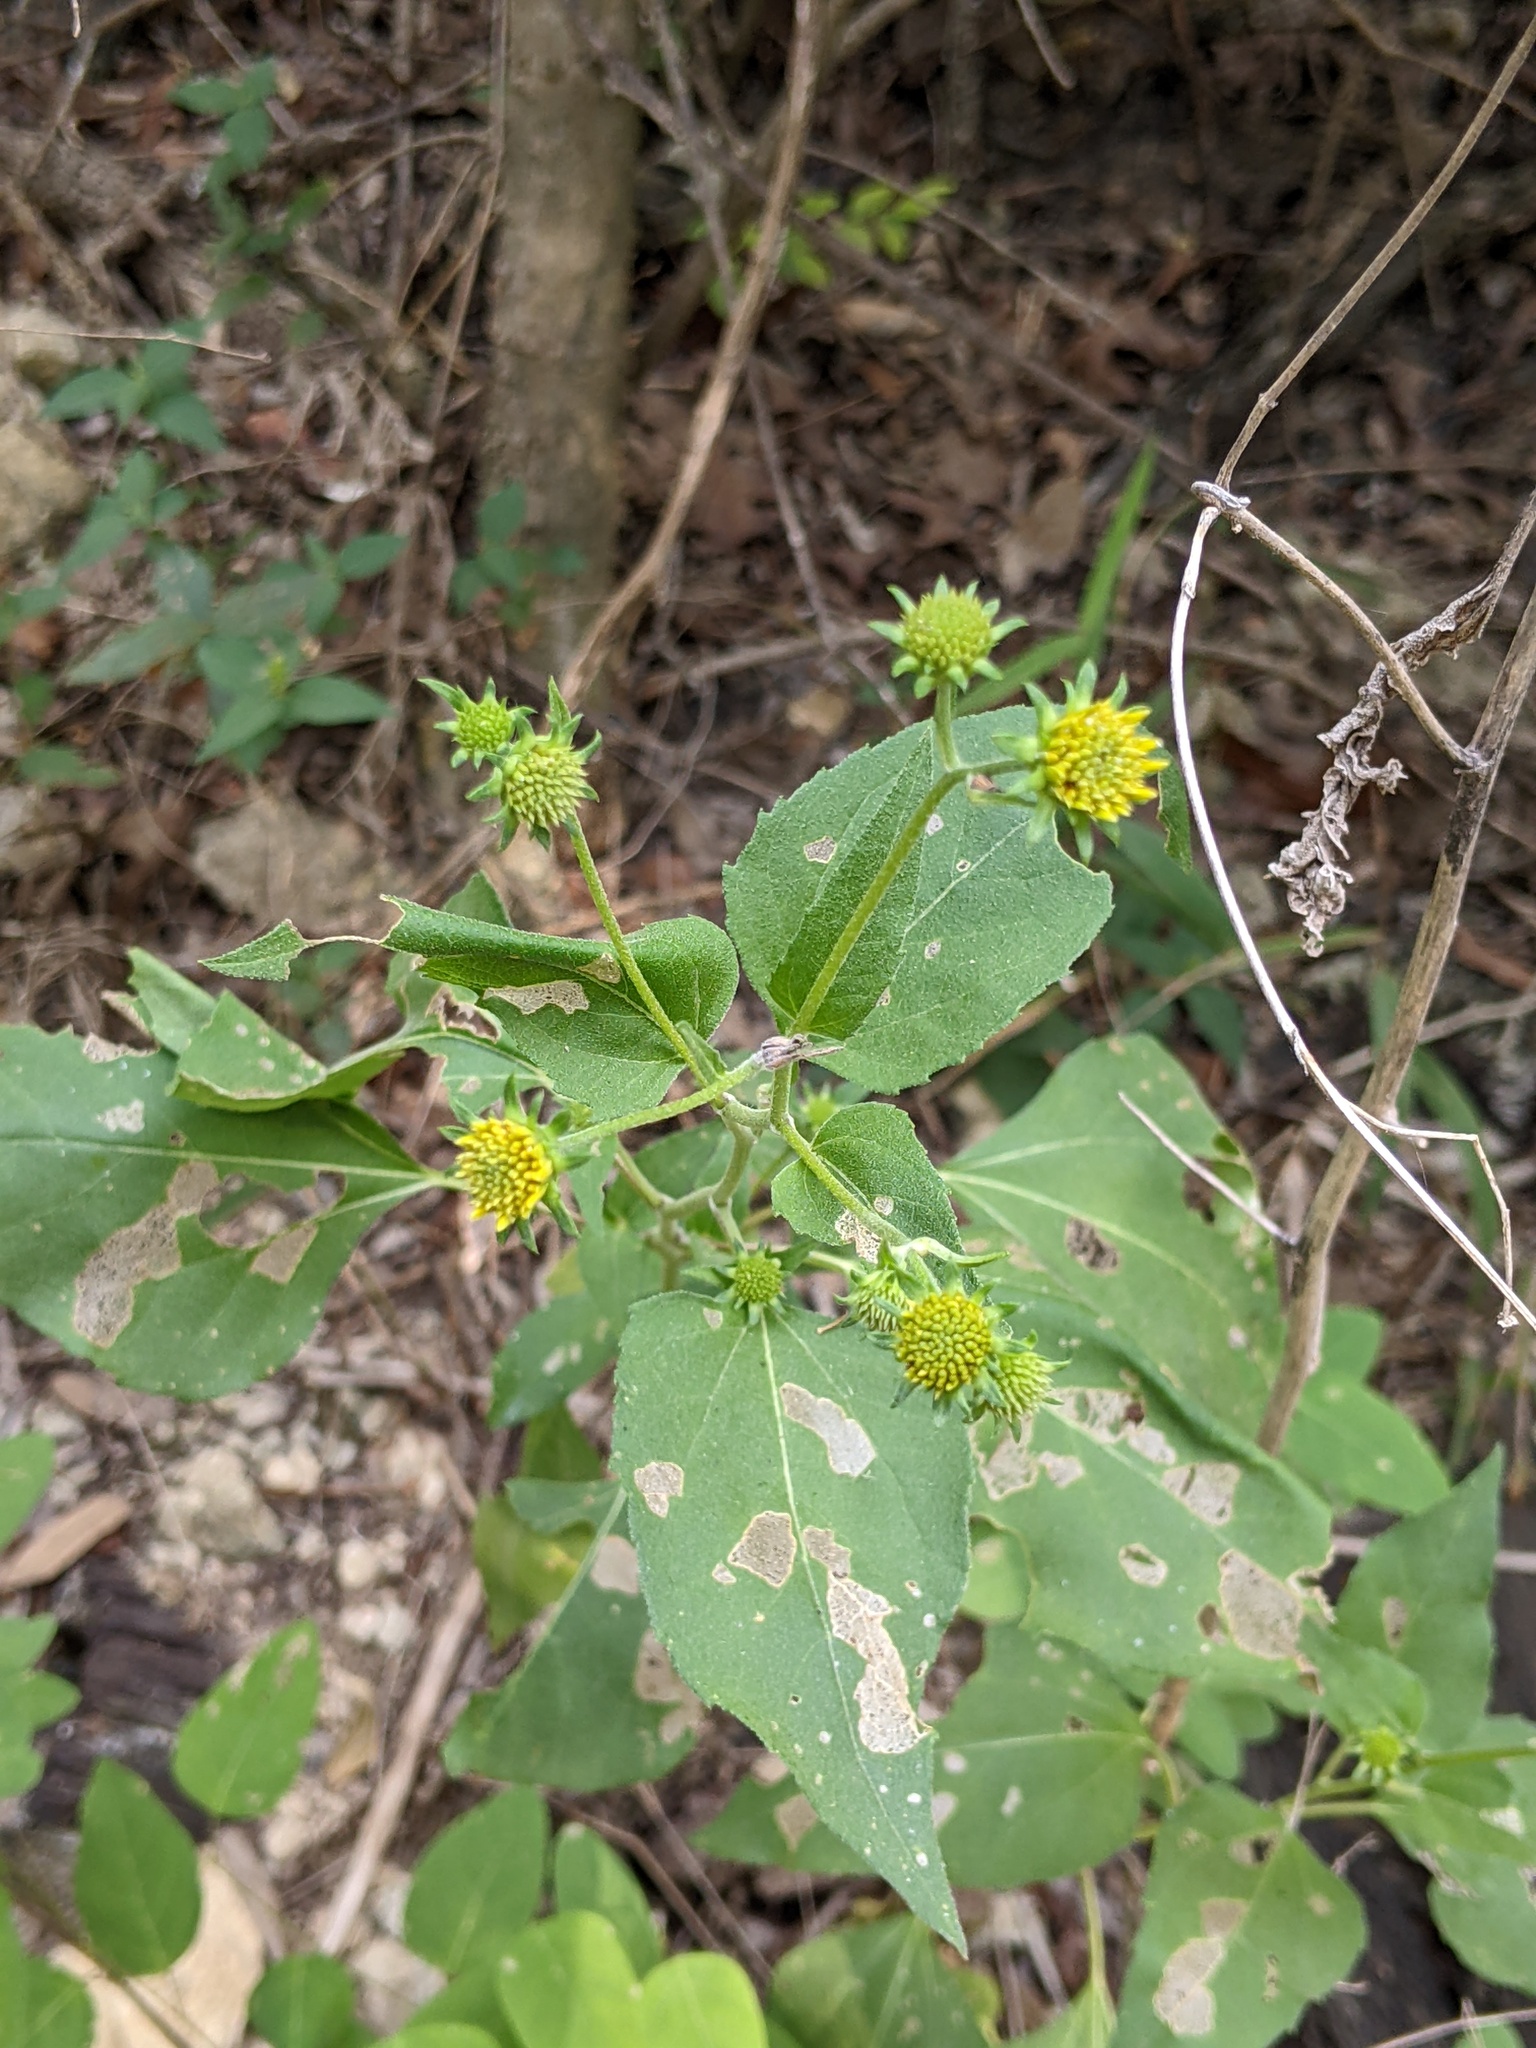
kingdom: Plantae
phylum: Tracheophyta
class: Magnoliopsida
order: Asterales
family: Asteraceae
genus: Viguiera
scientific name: Viguiera dentata
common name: Toothleaf
